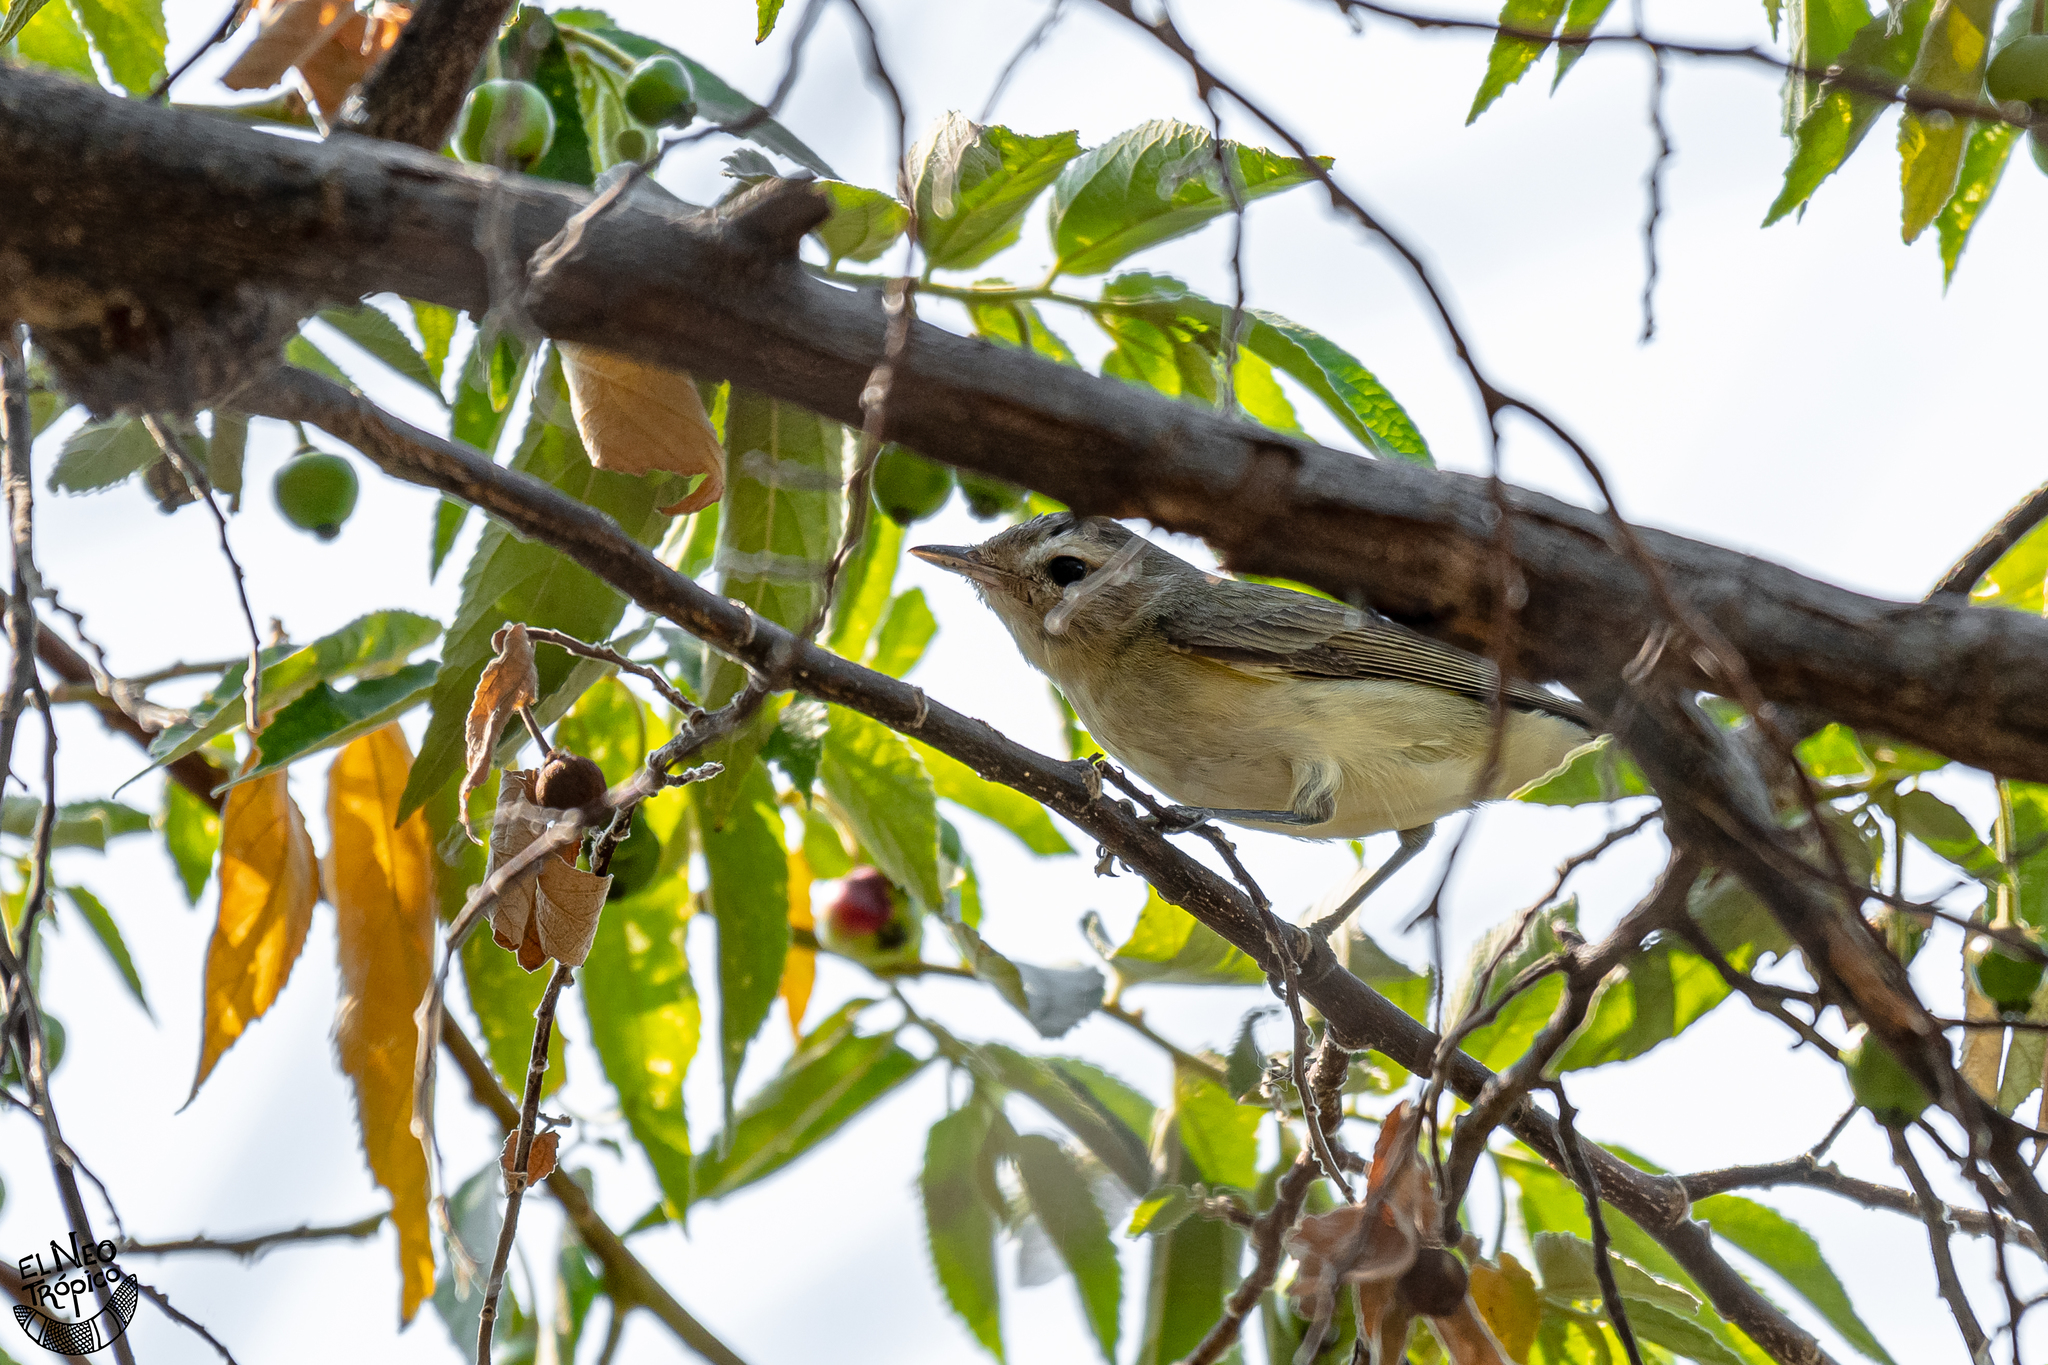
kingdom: Animalia
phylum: Chordata
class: Aves
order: Passeriformes
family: Vireonidae
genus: Vireo
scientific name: Vireo gilvus
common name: Warbling vireo
